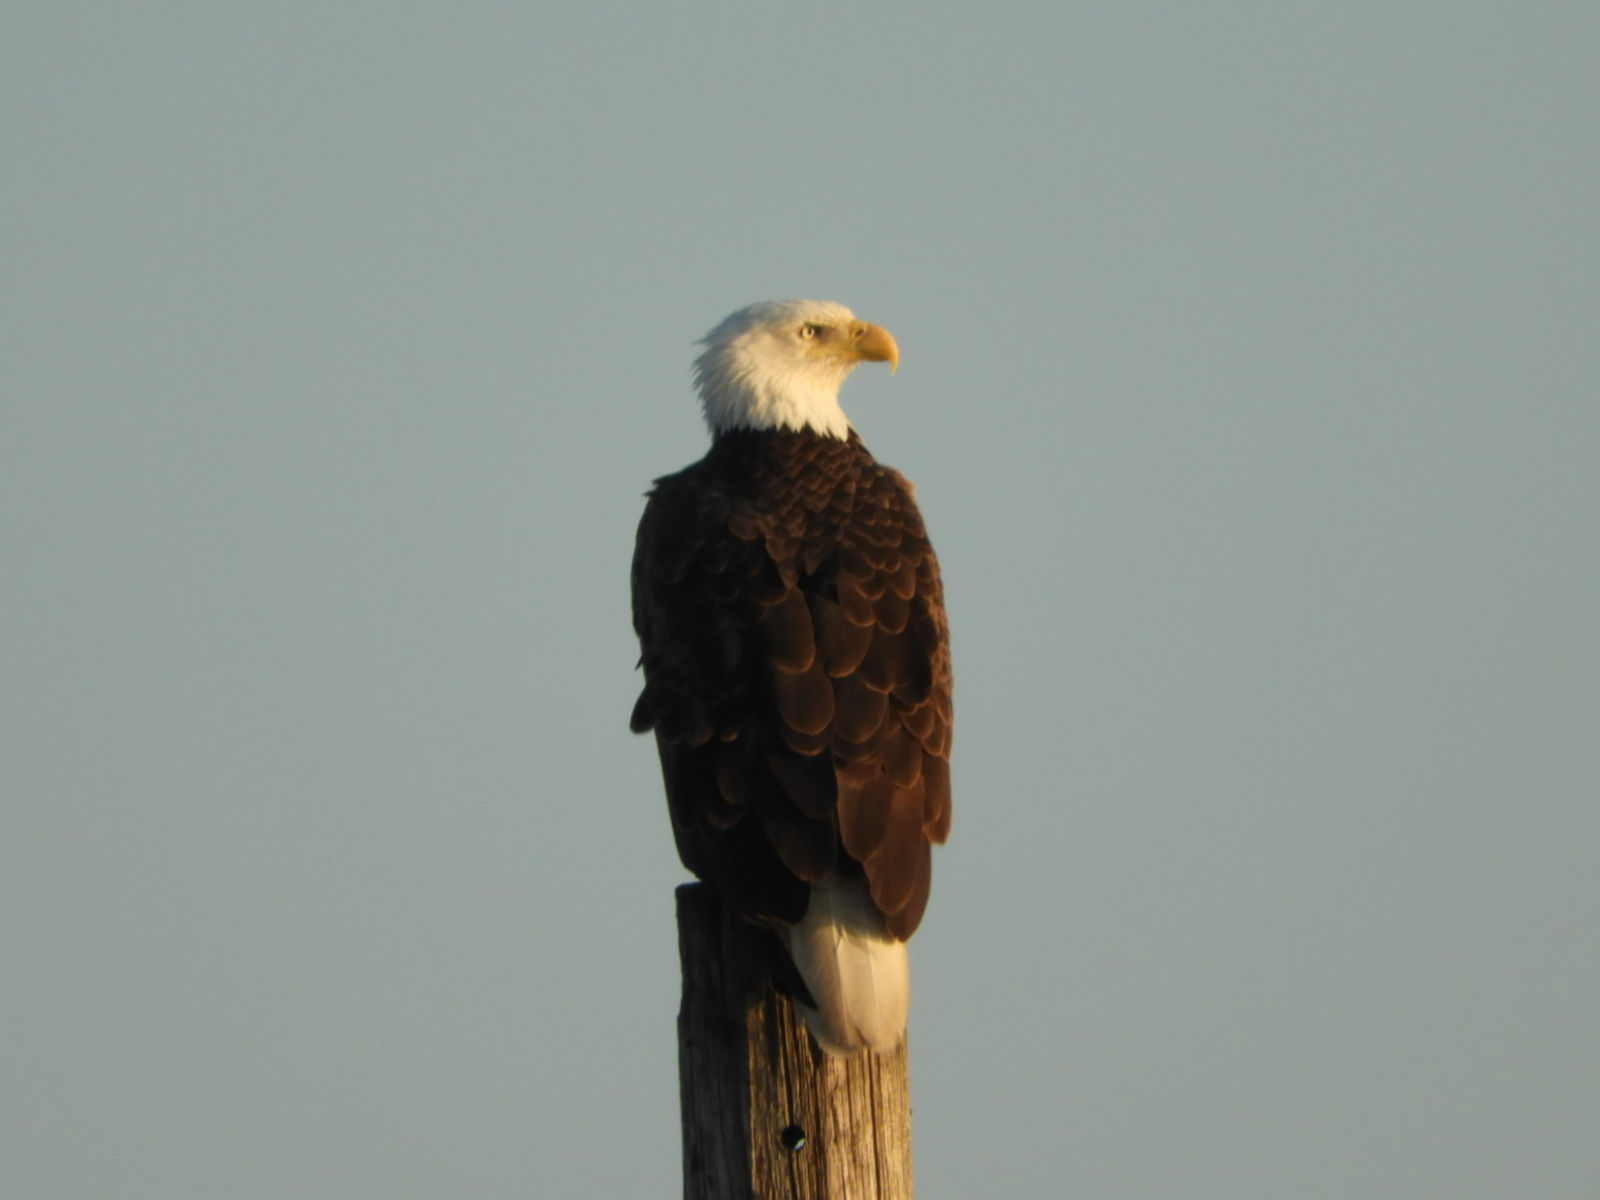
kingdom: Animalia
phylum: Chordata
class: Aves
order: Accipitriformes
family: Accipitridae
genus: Haliaeetus
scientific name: Haliaeetus leucocephalus
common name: Bald eagle
